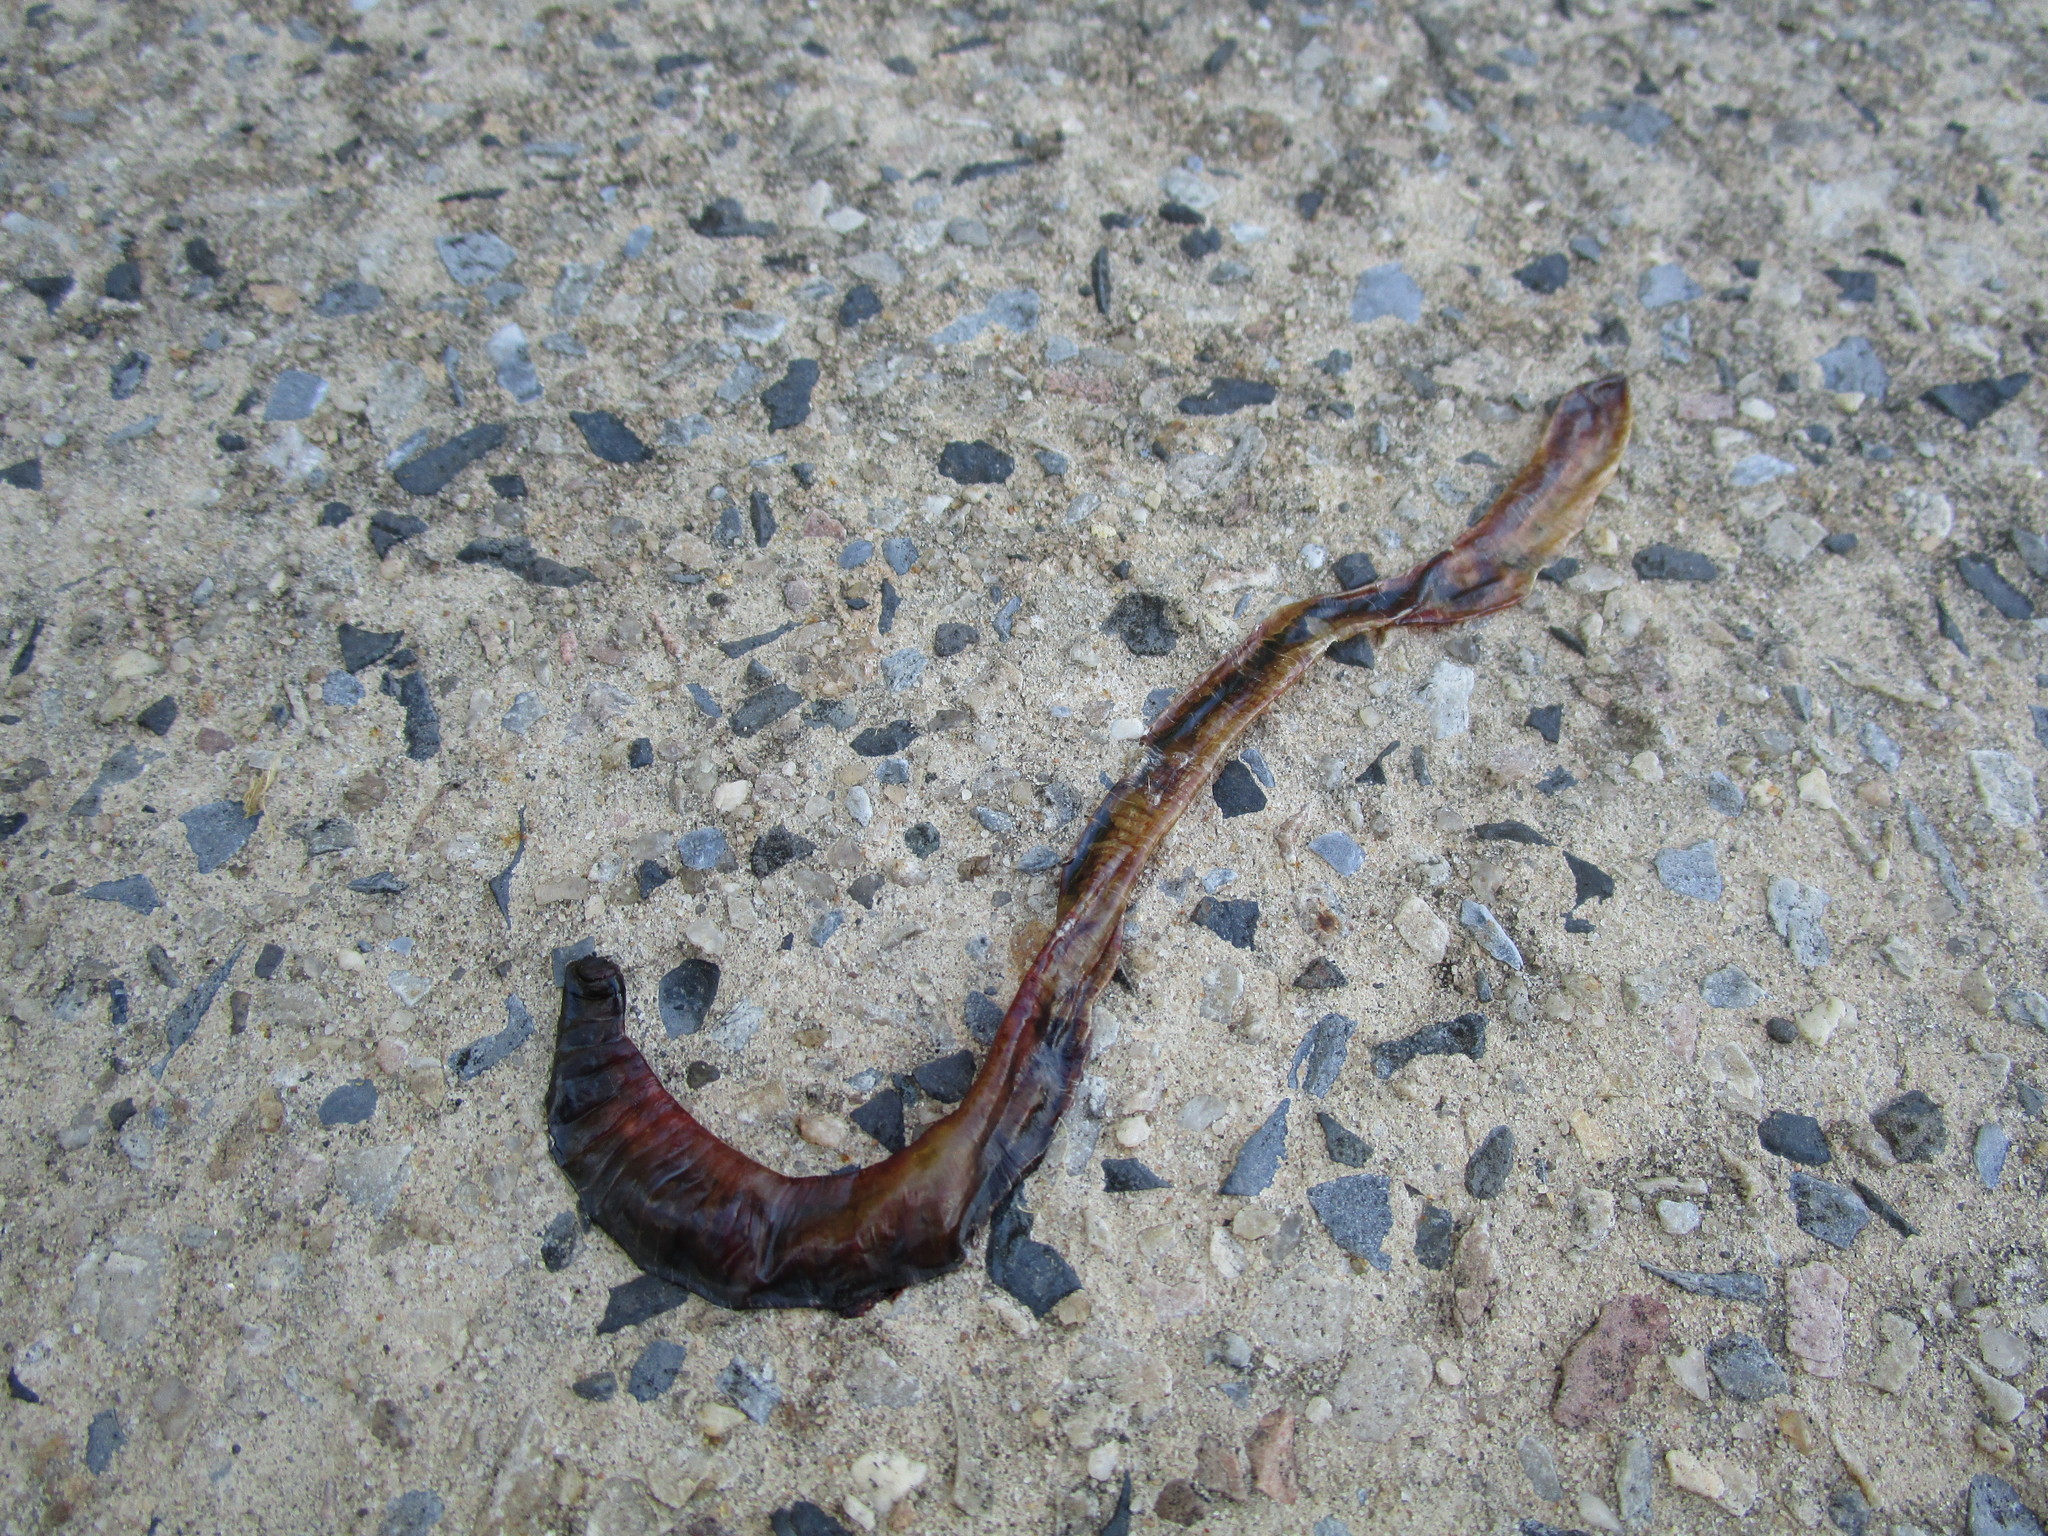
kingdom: Animalia
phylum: Annelida
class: Clitellata
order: Crassiclitellata
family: Lumbricidae
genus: Lumbricus
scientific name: Lumbricus terrestris
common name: Common earthworm
